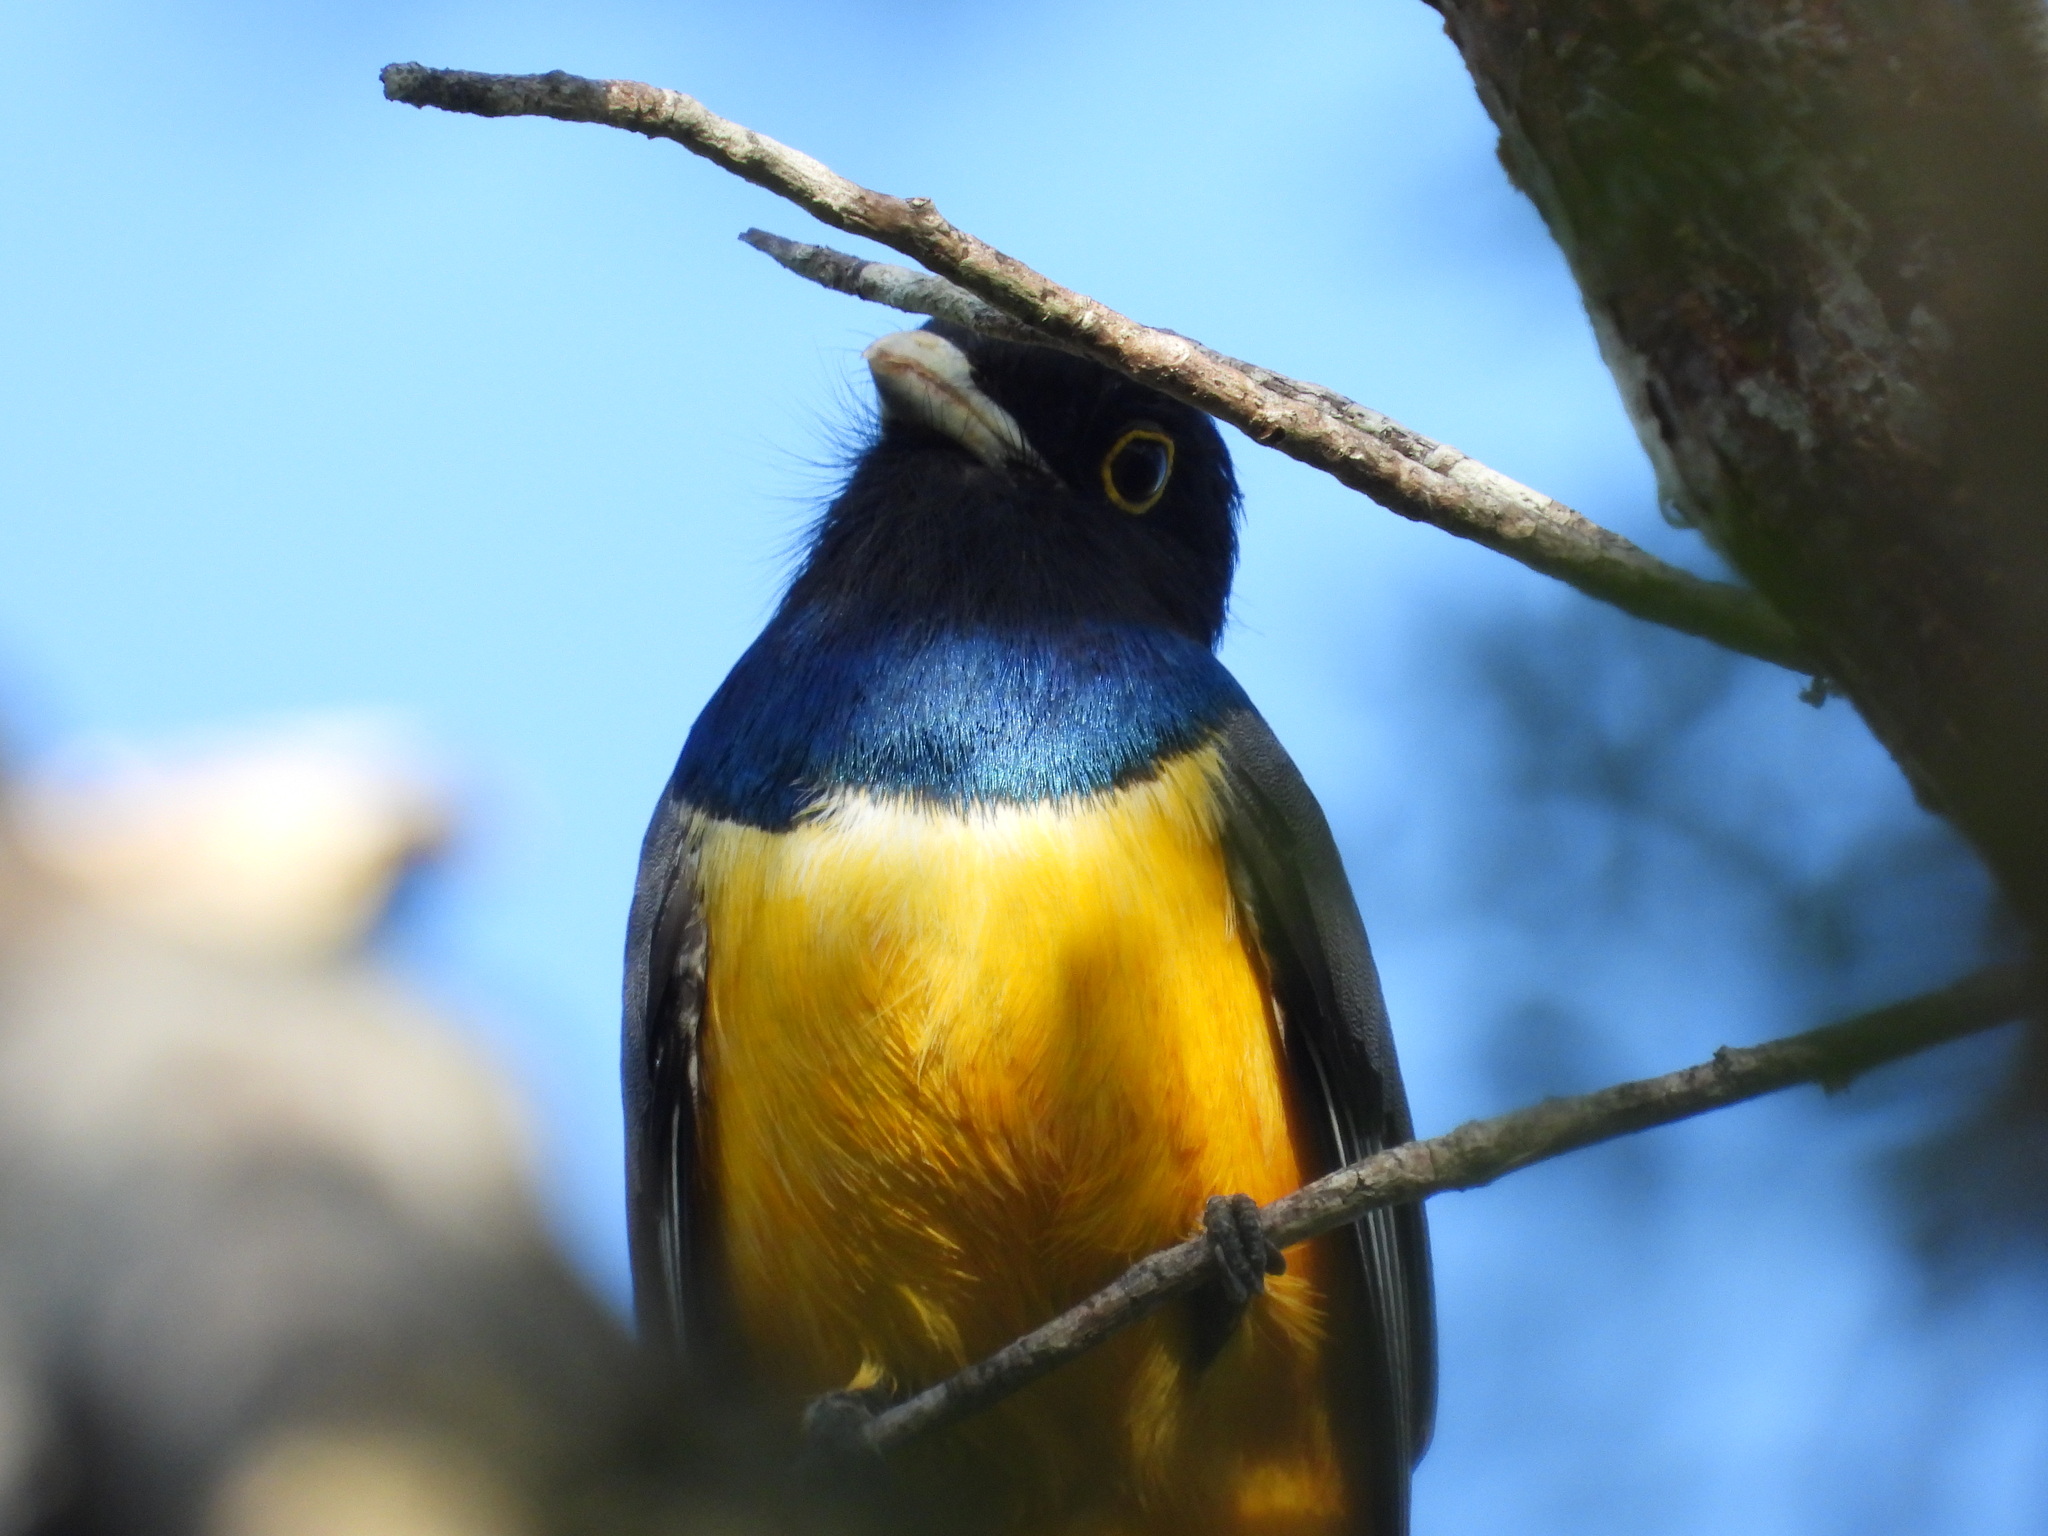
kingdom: Animalia
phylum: Chordata
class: Aves
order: Trogoniformes
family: Trogonidae
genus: Trogon
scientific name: Trogon caligatus
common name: Gartered trogon
